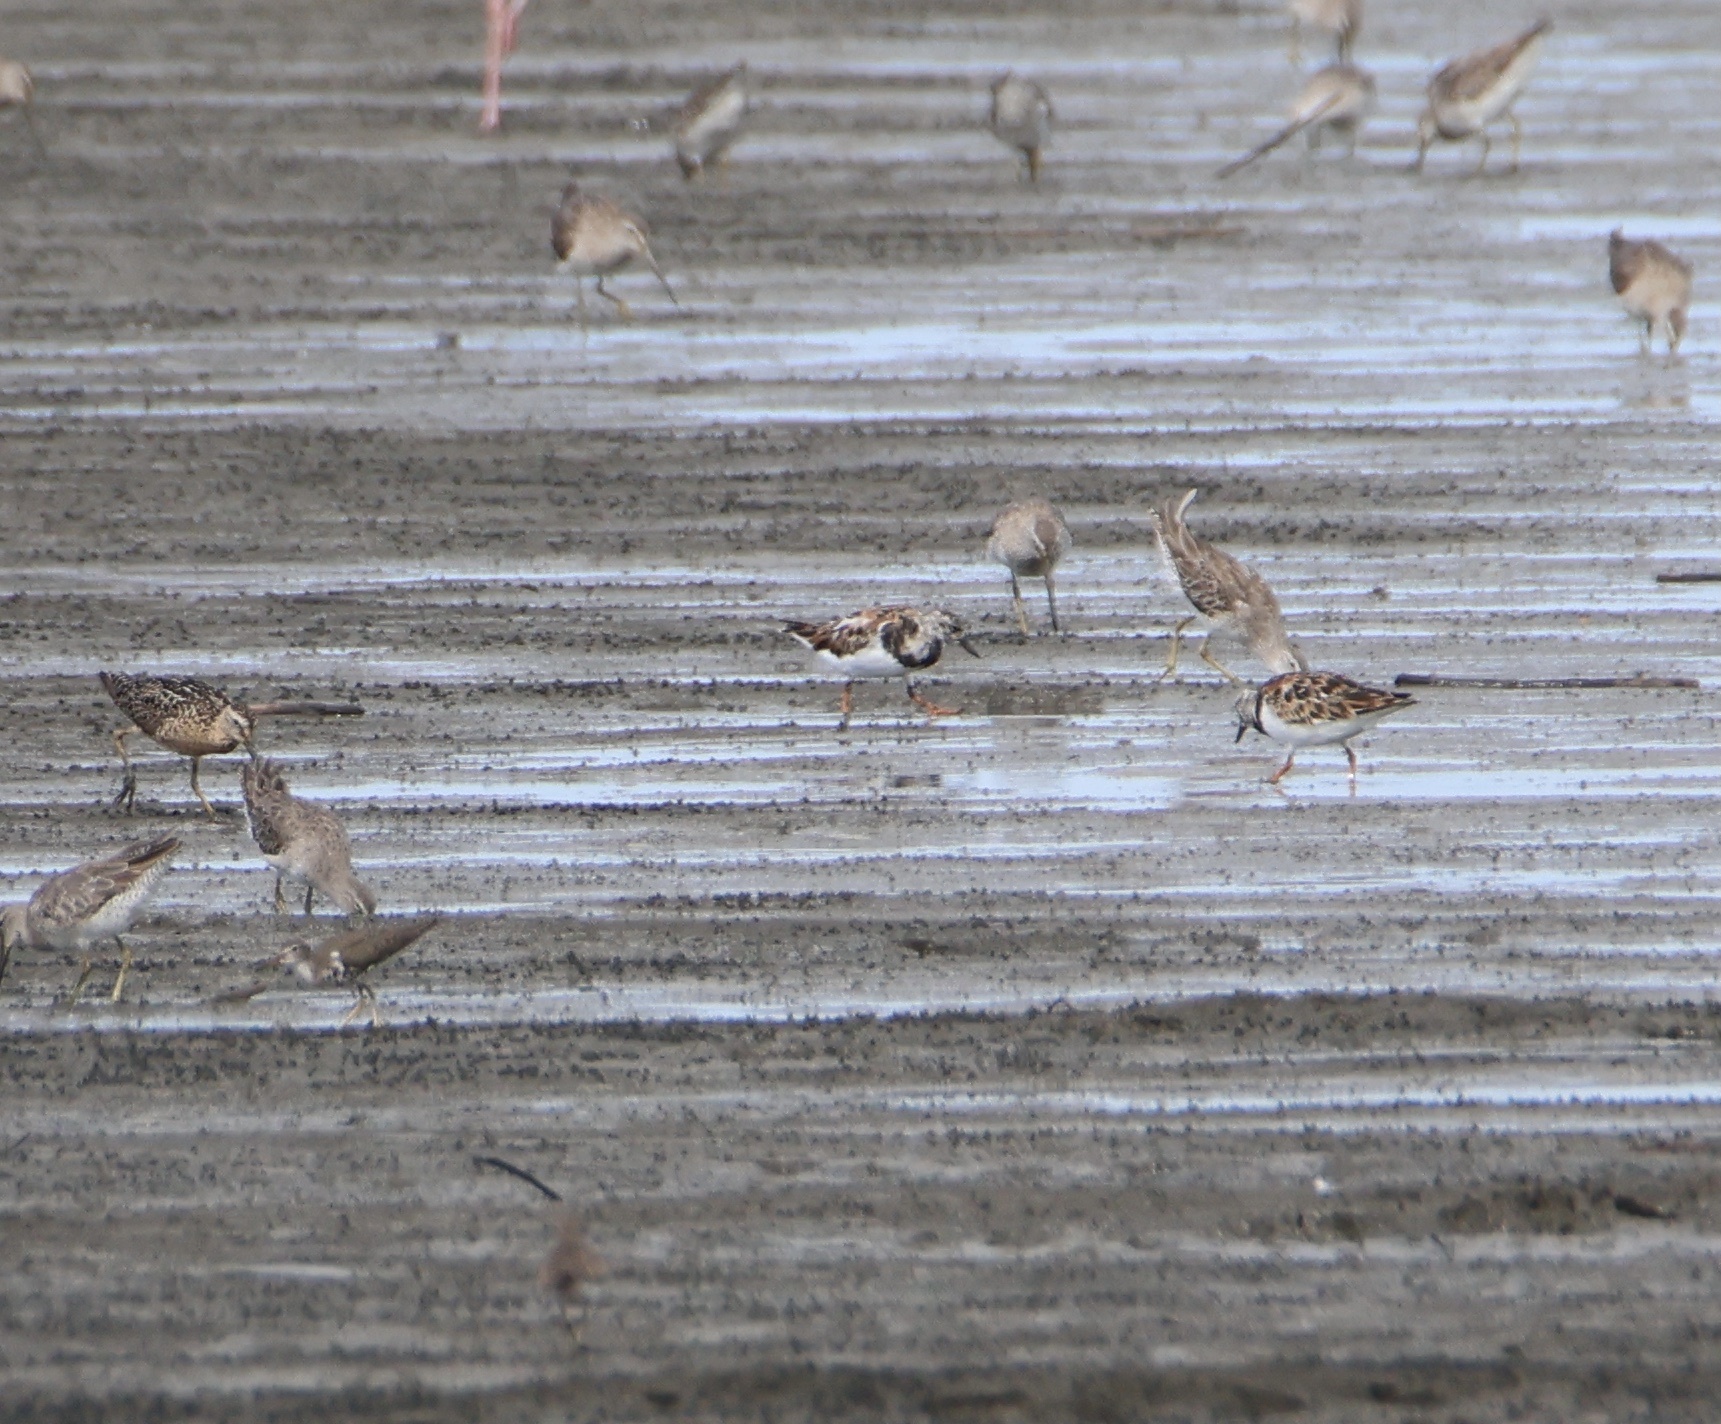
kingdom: Animalia
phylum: Chordata
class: Aves
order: Charadriiformes
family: Scolopacidae
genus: Arenaria
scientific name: Arenaria interpres
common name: Ruddy turnstone
